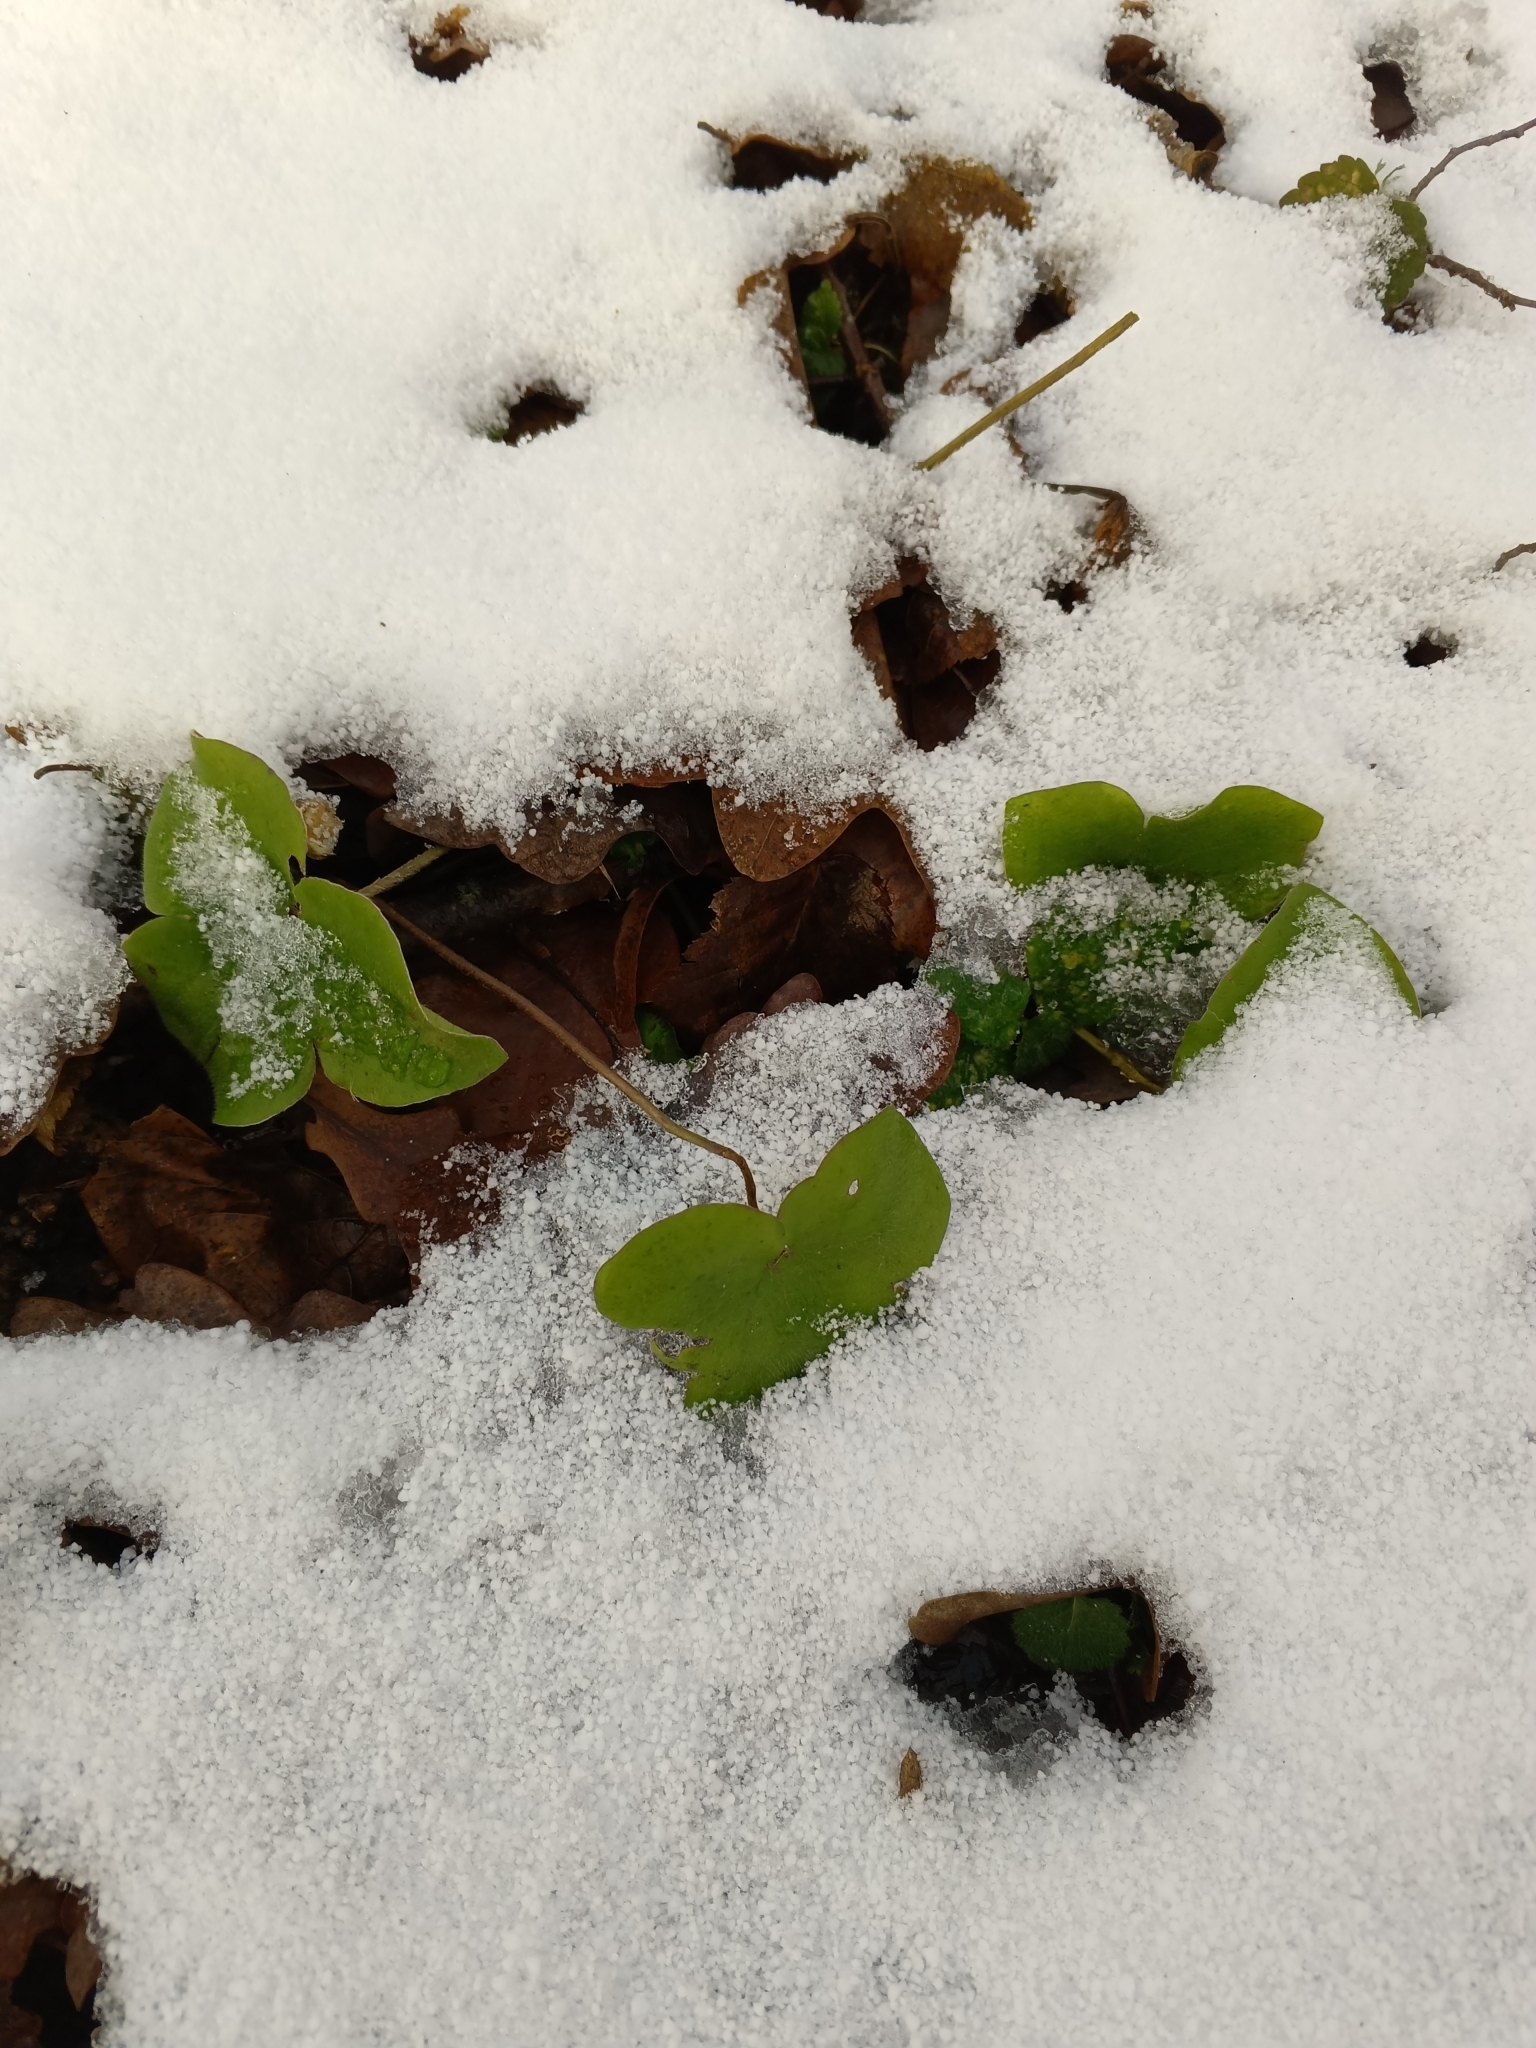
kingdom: Plantae
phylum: Tracheophyta
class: Magnoliopsida
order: Ranunculales
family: Ranunculaceae
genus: Hepatica
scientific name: Hepatica nobilis
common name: Liverleaf
